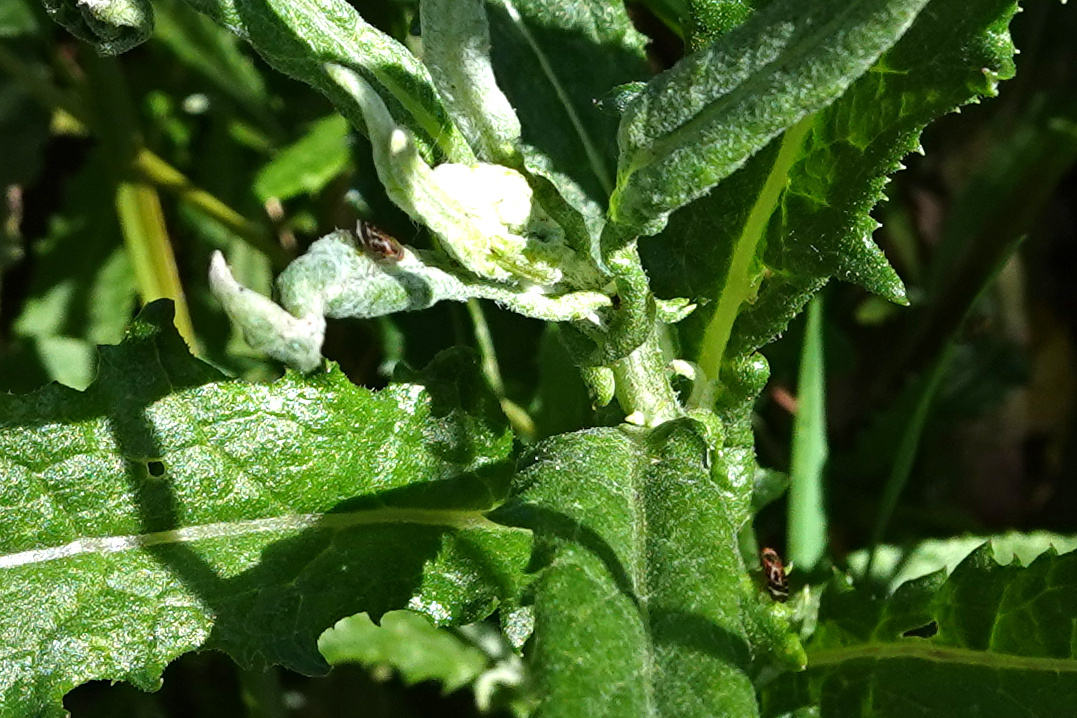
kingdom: Animalia
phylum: Arthropoda
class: Insecta
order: Diptera
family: Tephritidae
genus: Sphenella
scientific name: Sphenella
